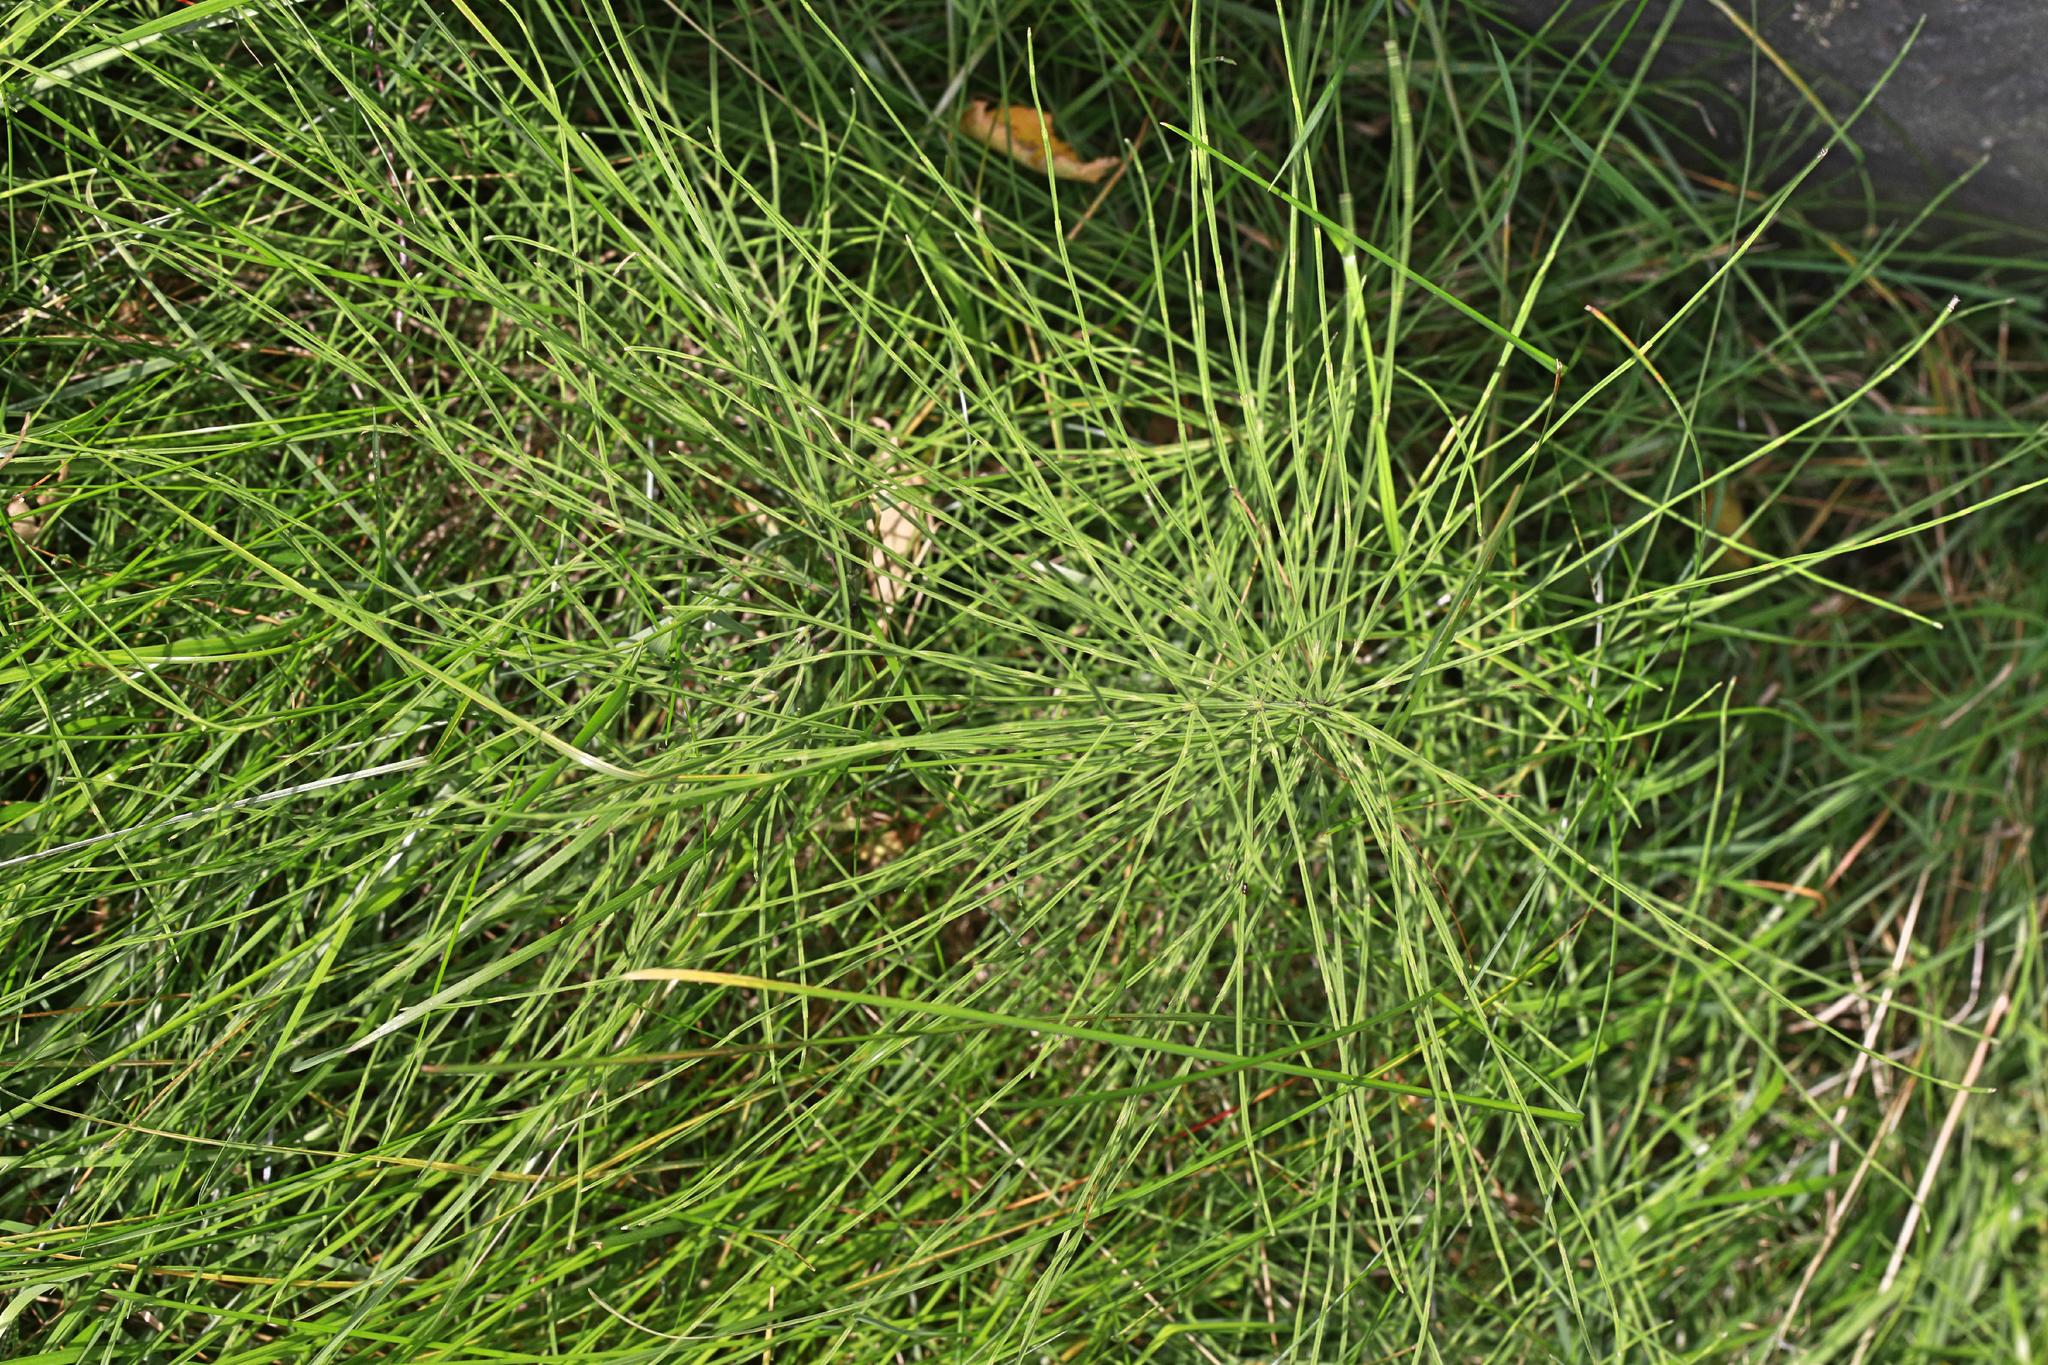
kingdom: Plantae
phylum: Tracheophyta
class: Polypodiopsida
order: Equisetales
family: Equisetaceae
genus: Equisetum
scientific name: Equisetum arvense
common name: Field horsetail
